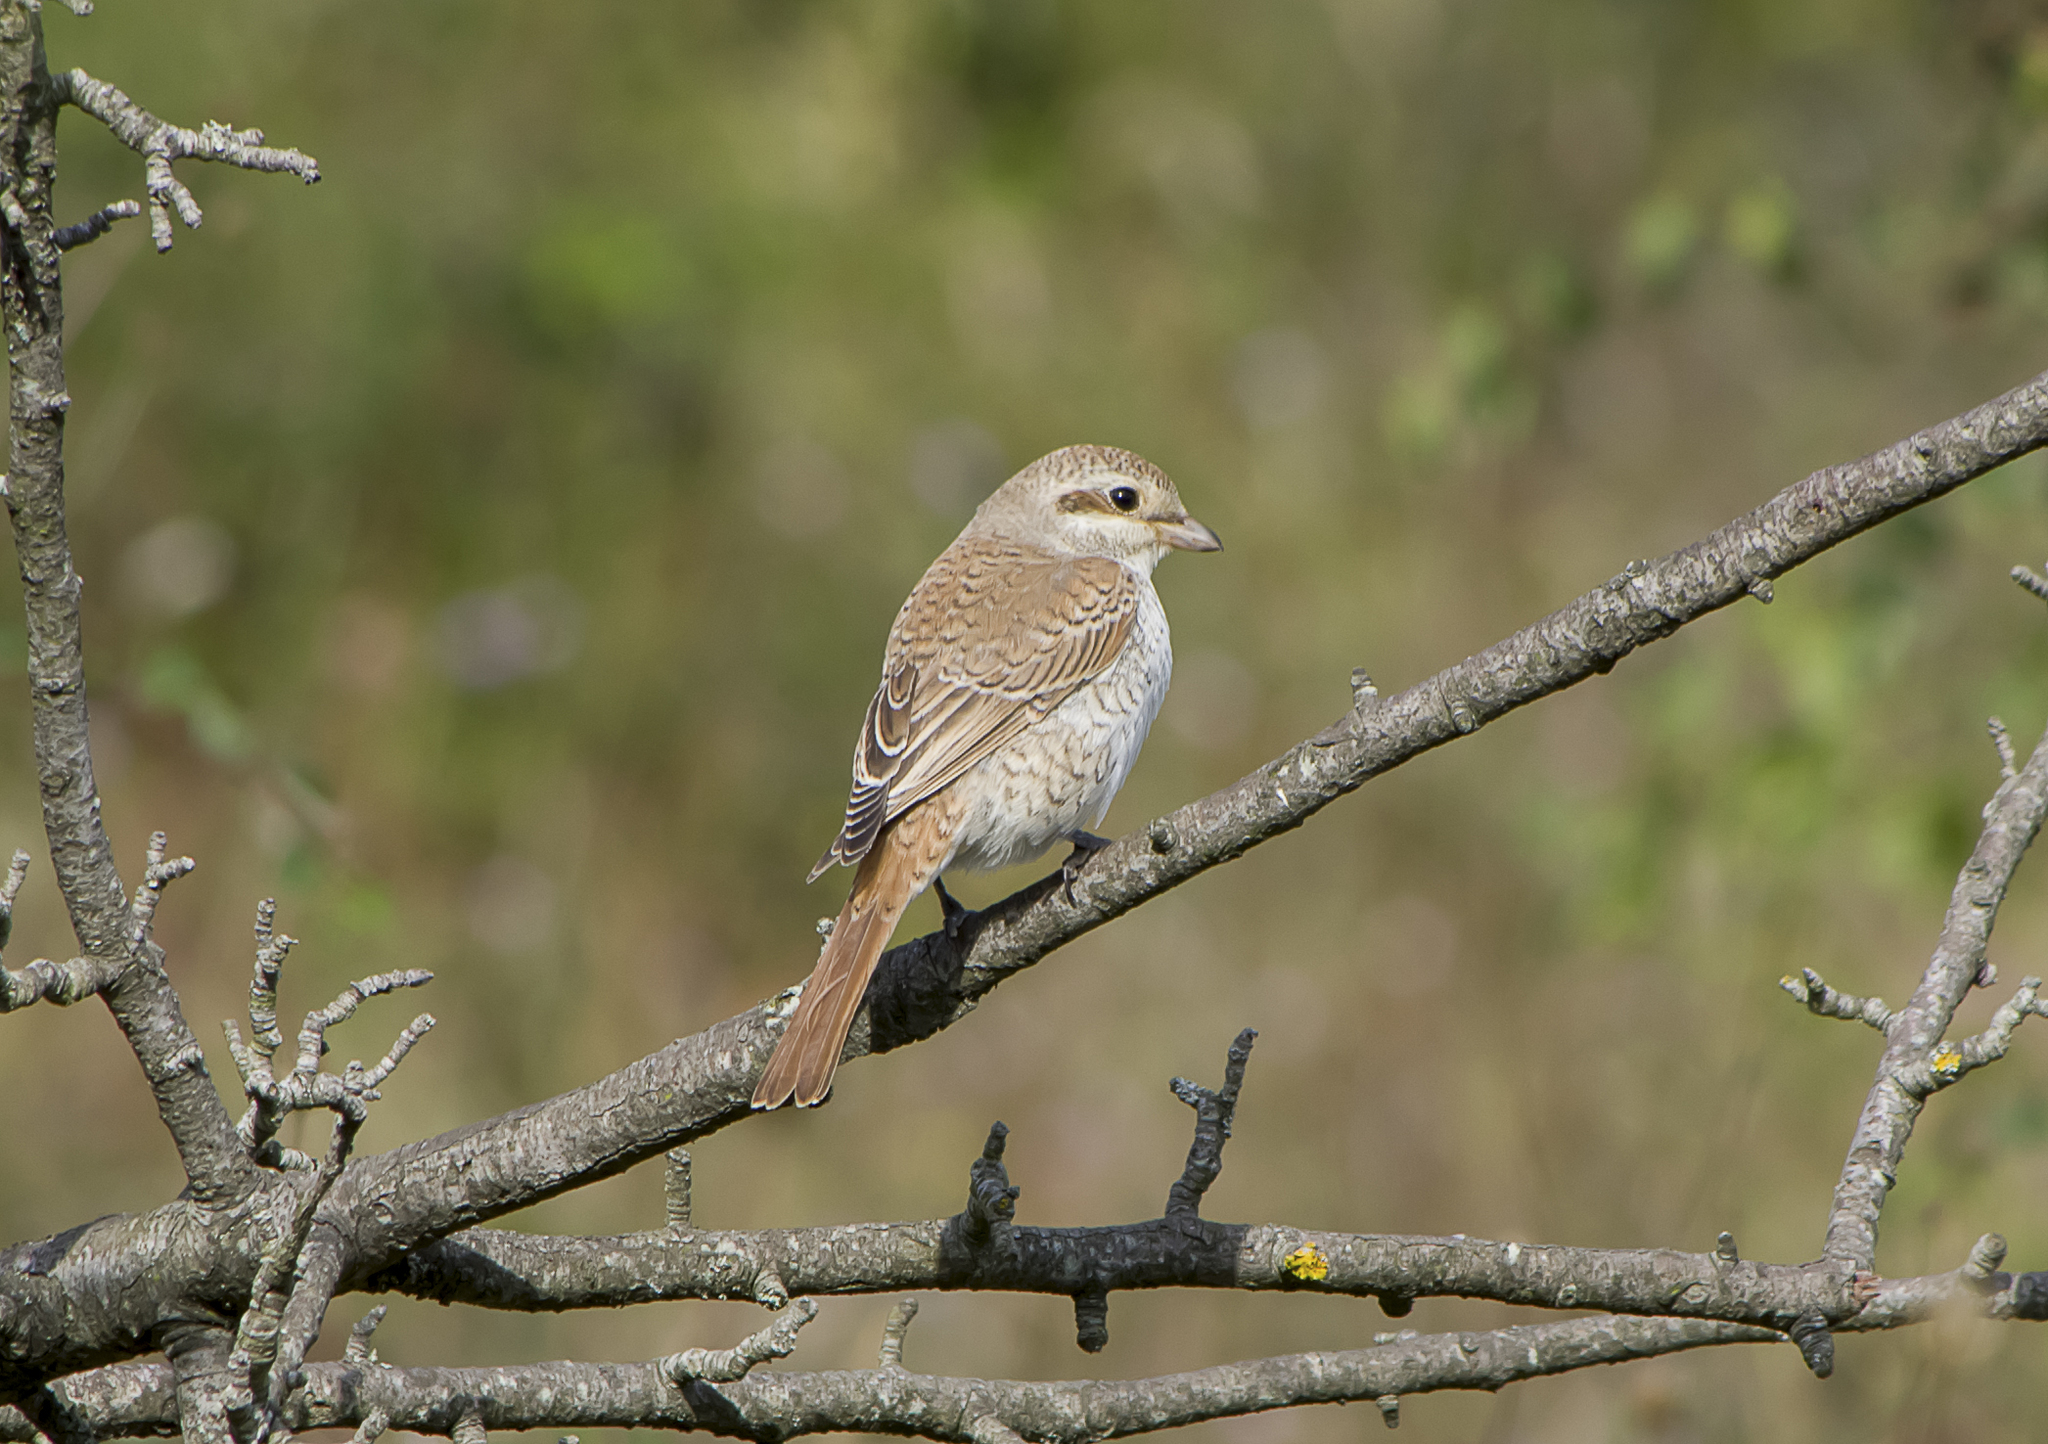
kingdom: Animalia
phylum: Chordata
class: Aves
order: Passeriformes
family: Laniidae
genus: Lanius
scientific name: Lanius collurio
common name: Red-backed shrike
